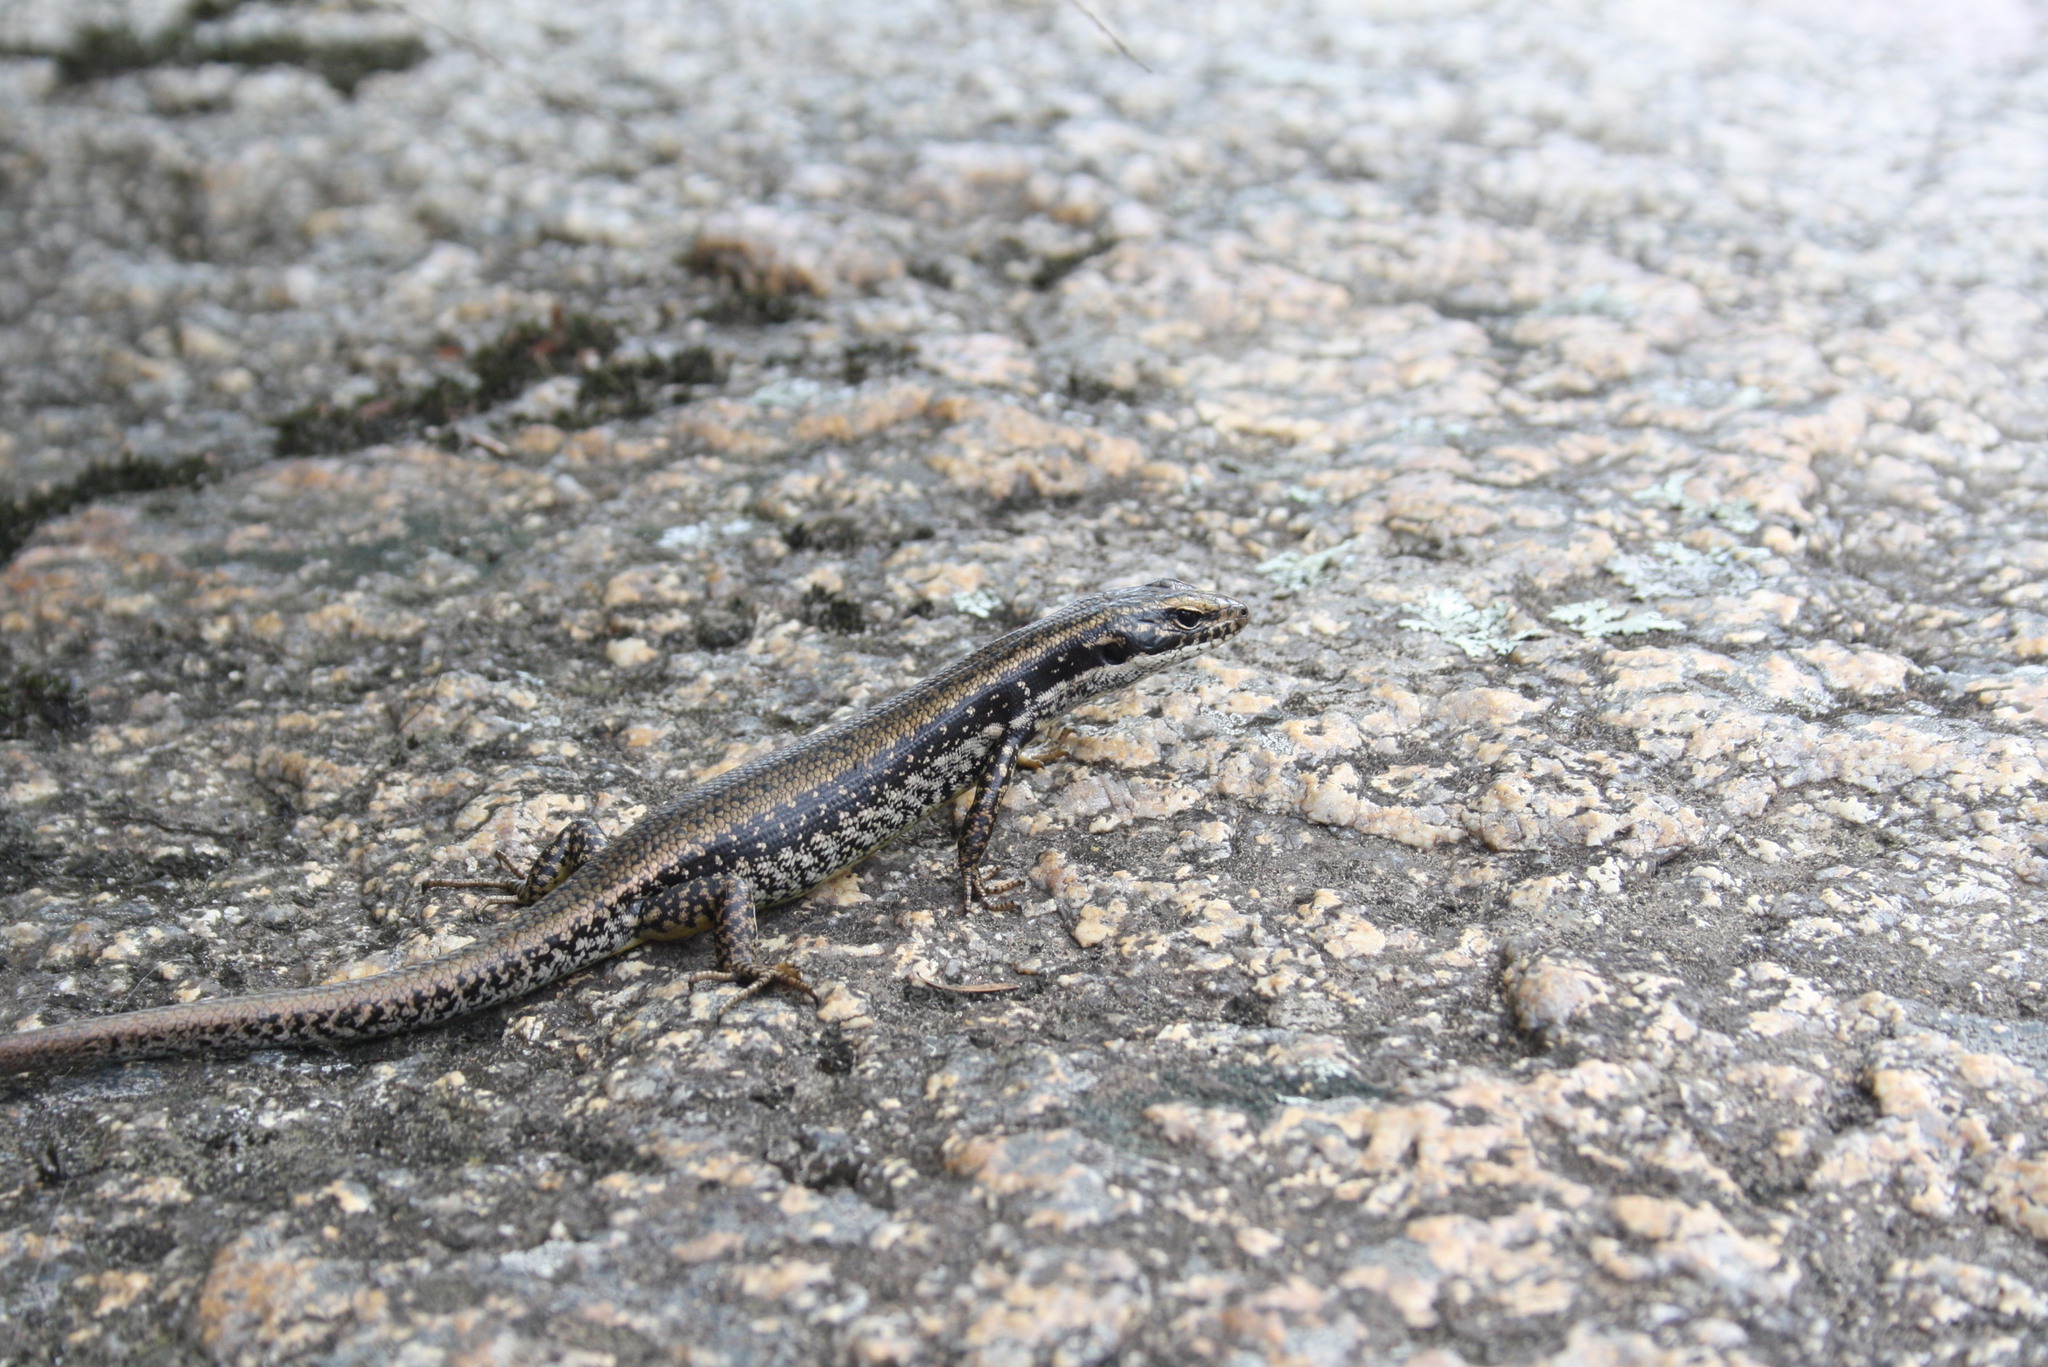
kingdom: Animalia
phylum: Chordata
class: Squamata
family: Scincidae
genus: Eulamprus
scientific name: Eulamprus heatwolei
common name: Warm-temperate water-skink
